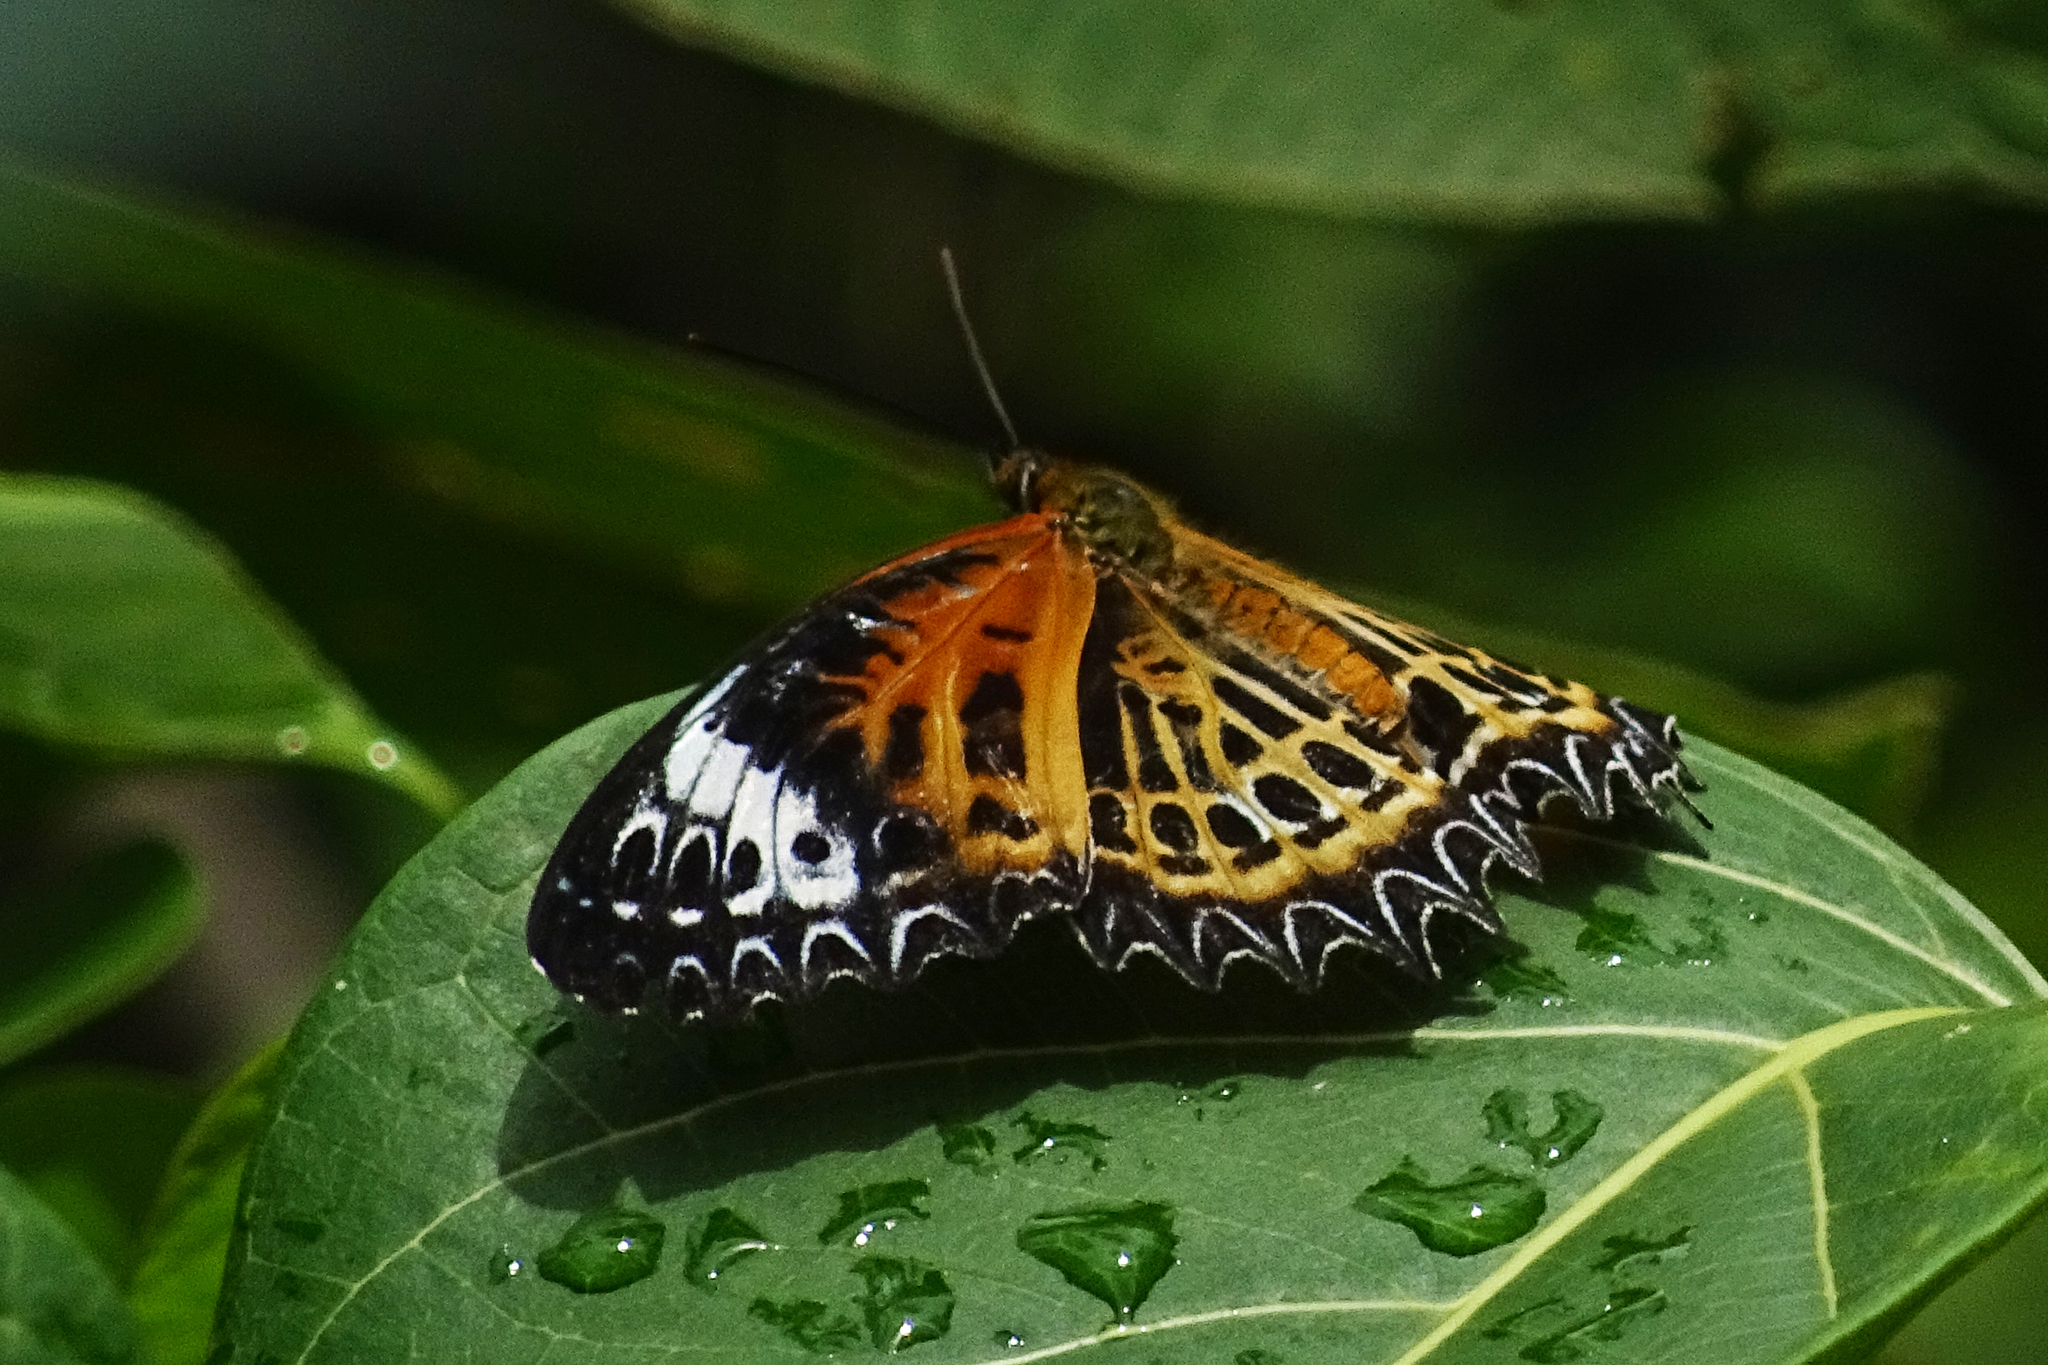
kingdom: Animalia
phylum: Arthropoda
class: Insecta
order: Lepidoptera
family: Nymphalidae
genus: Cethosia
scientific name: Cethosia
